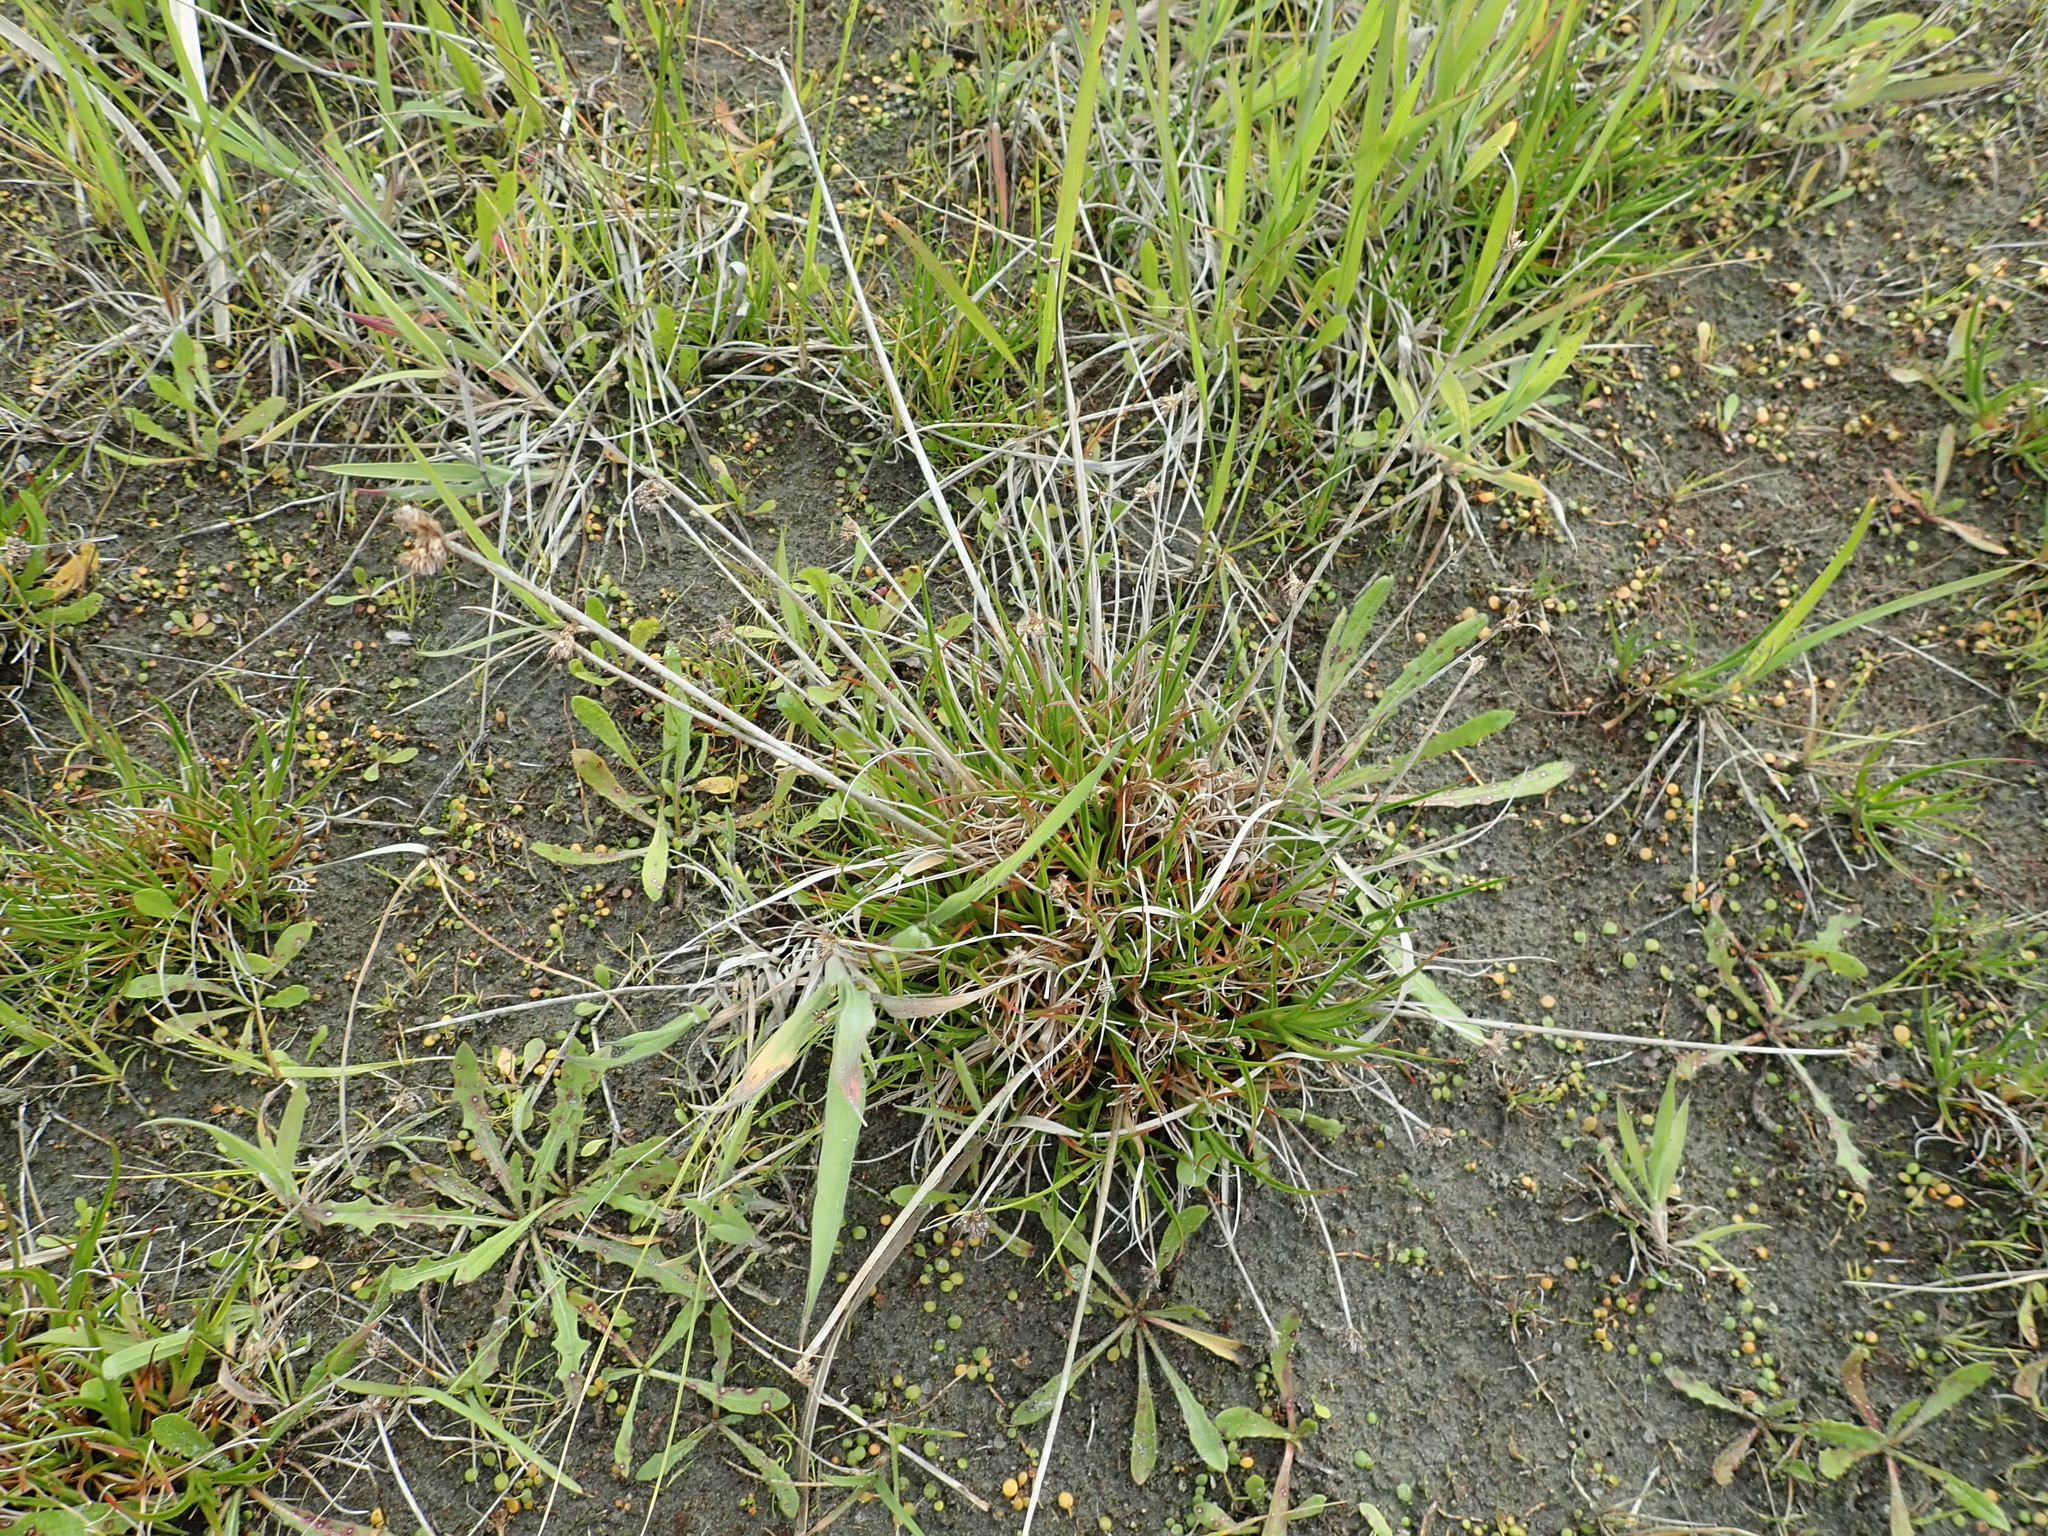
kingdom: Plantae
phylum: Tracheophyta
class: Liliopsida
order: Poales
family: Juncaceae
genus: Juncus
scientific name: Juncus caespiticius
